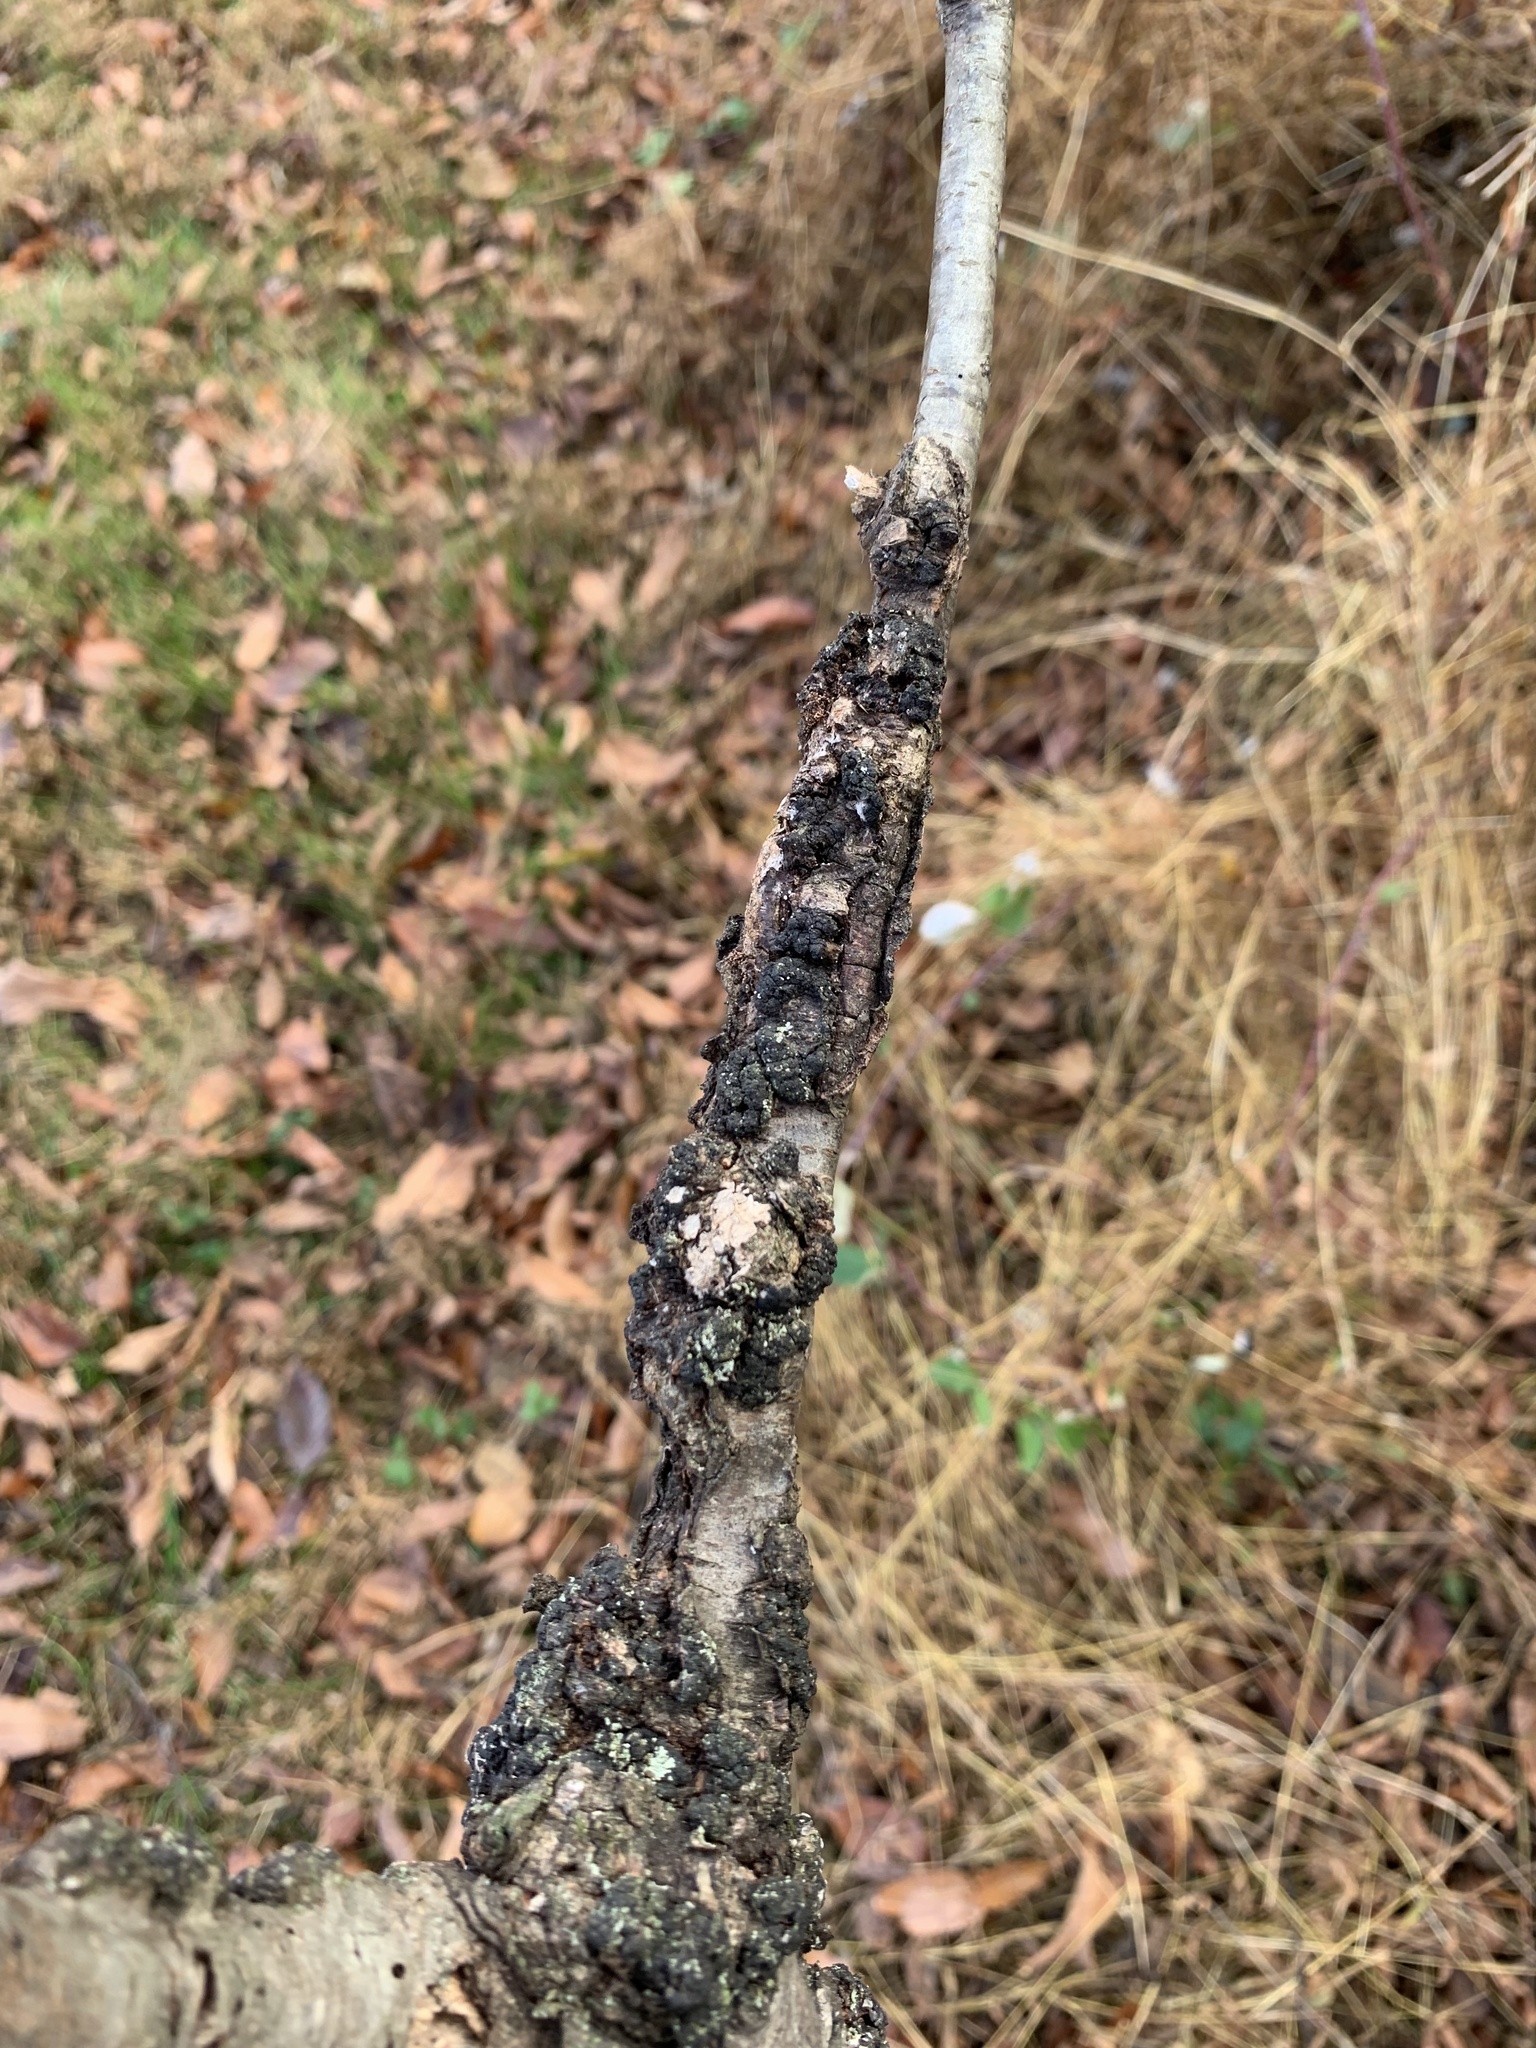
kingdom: Fungi
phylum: Ascomycota
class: Dothideomycetes
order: Venturiales
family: Venturiaceae
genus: Apiosporina
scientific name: Apiosporina morbosa
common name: Black knot
